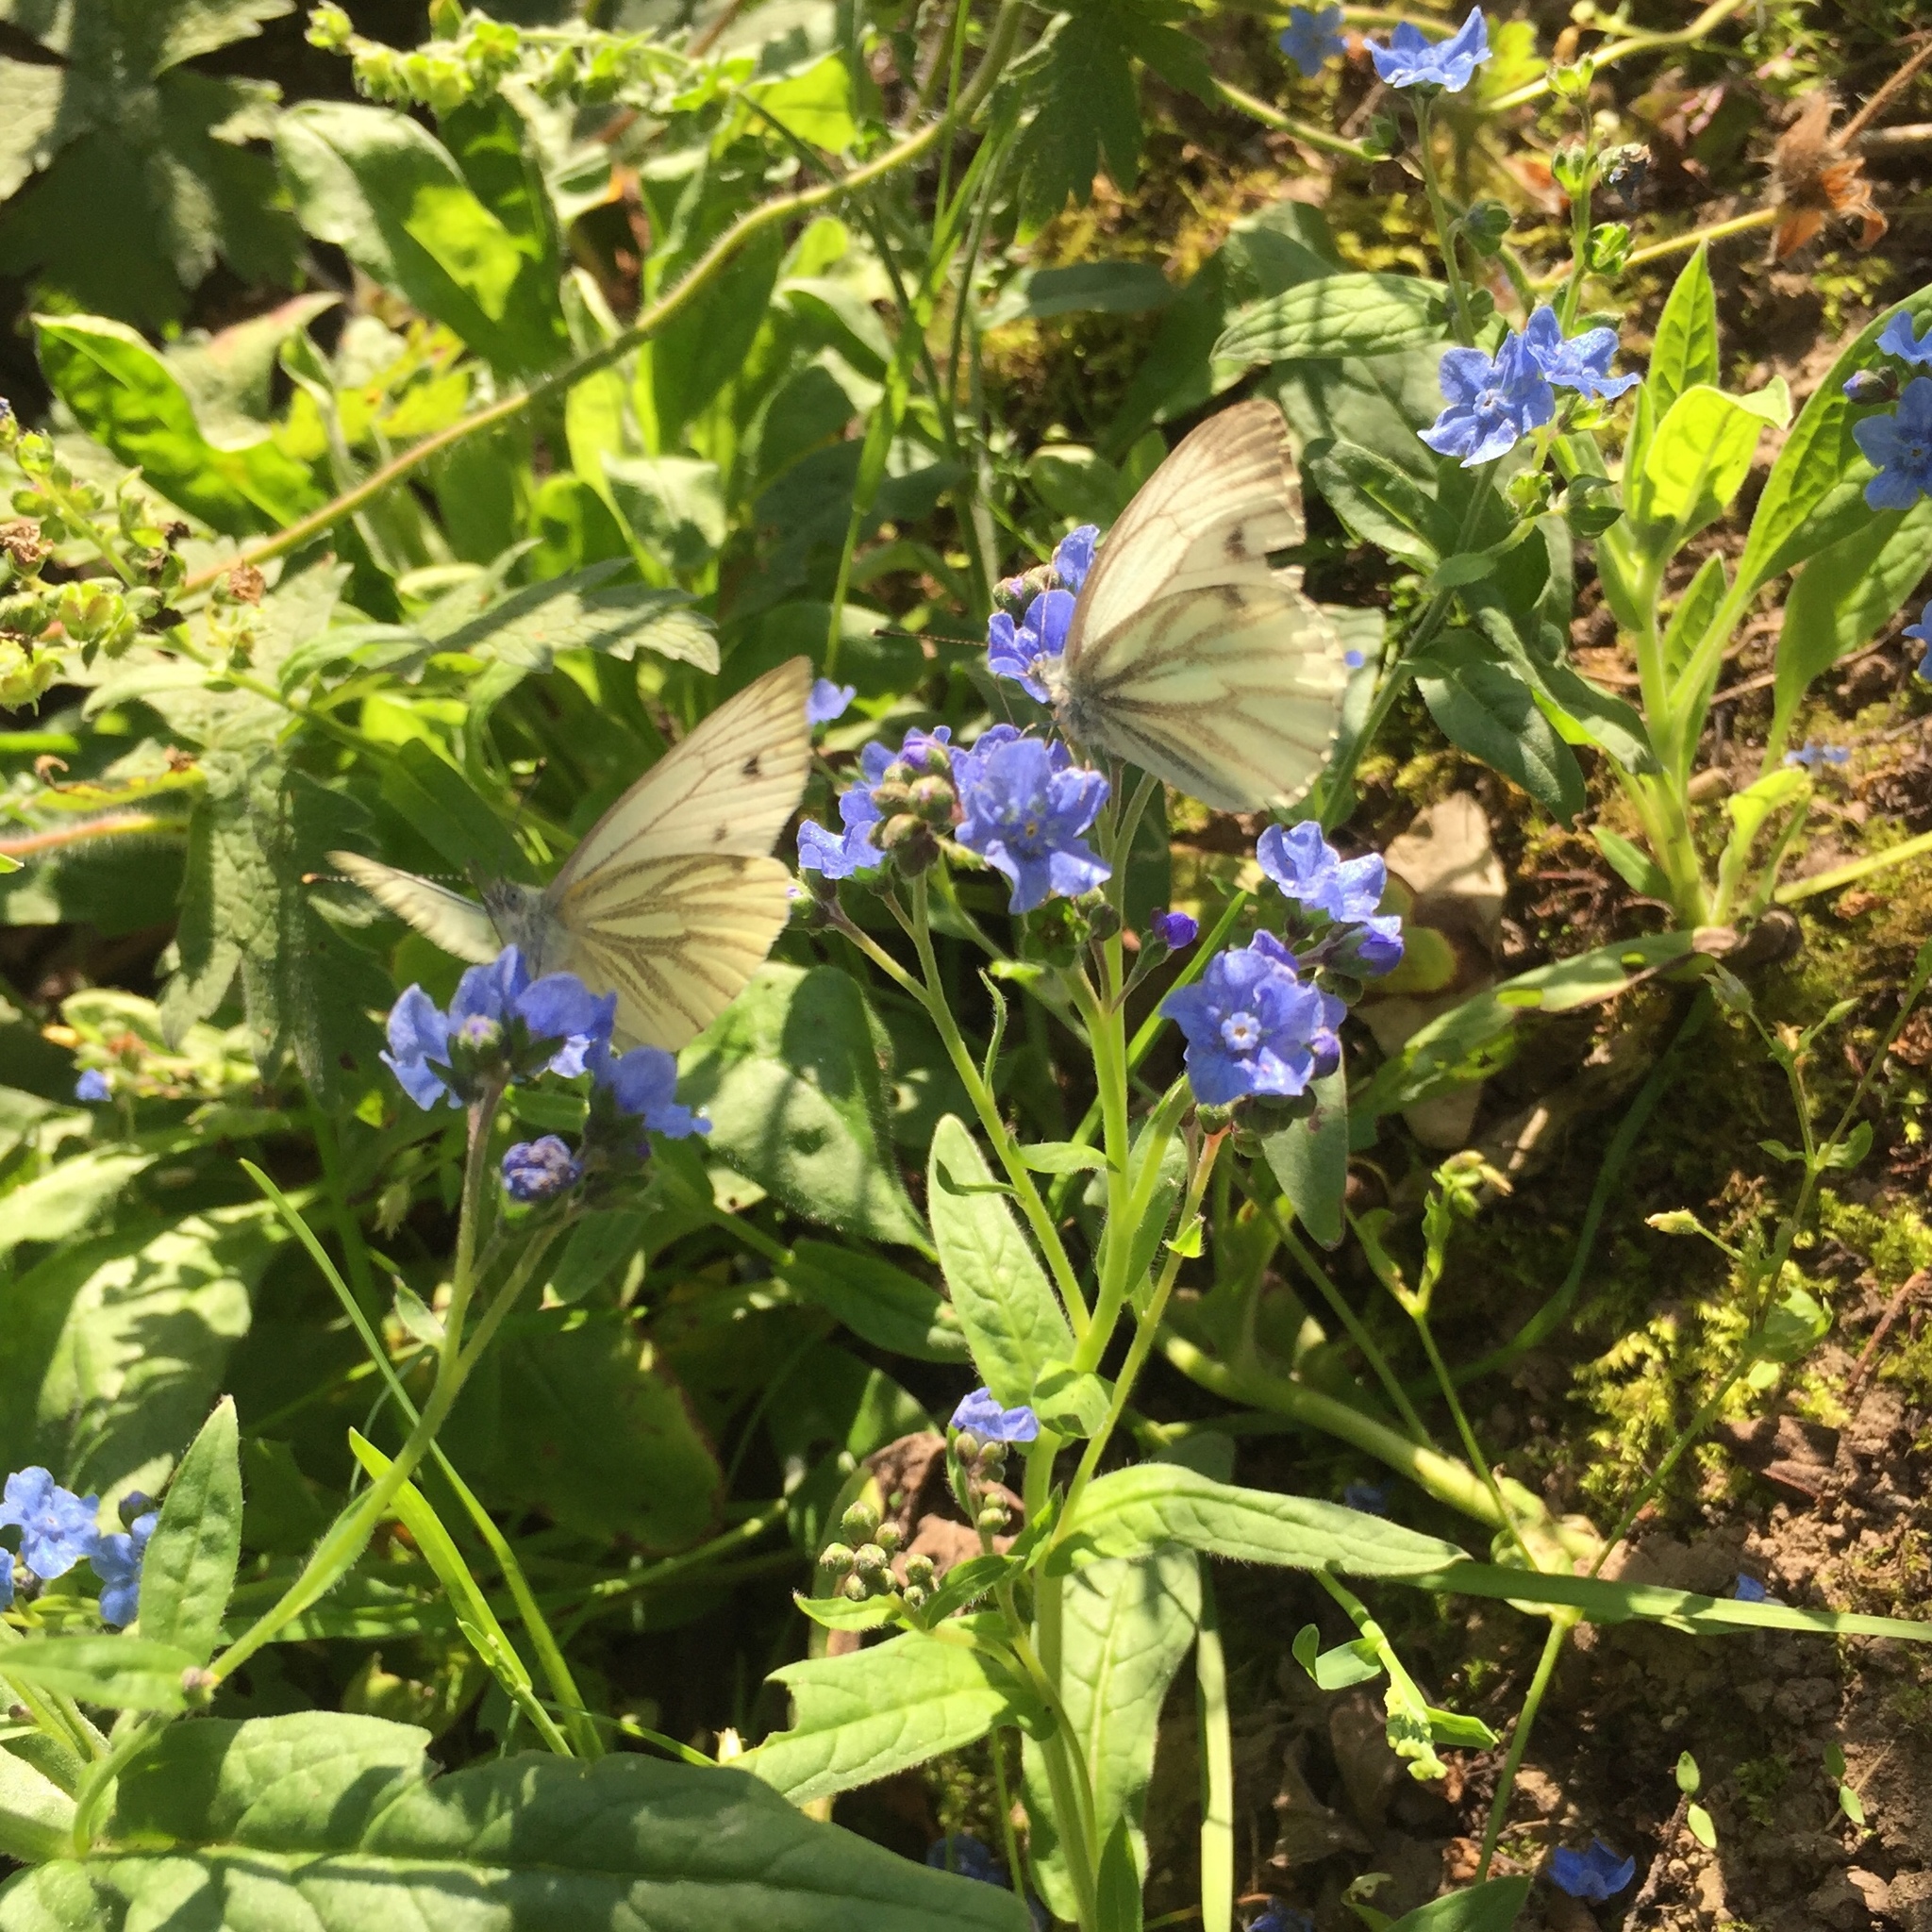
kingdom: Animalia
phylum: Arthropoda
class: Insecta
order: Lepidoptera
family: Pieridae
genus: Pieris
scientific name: Pieris napi
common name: Green-veined white
